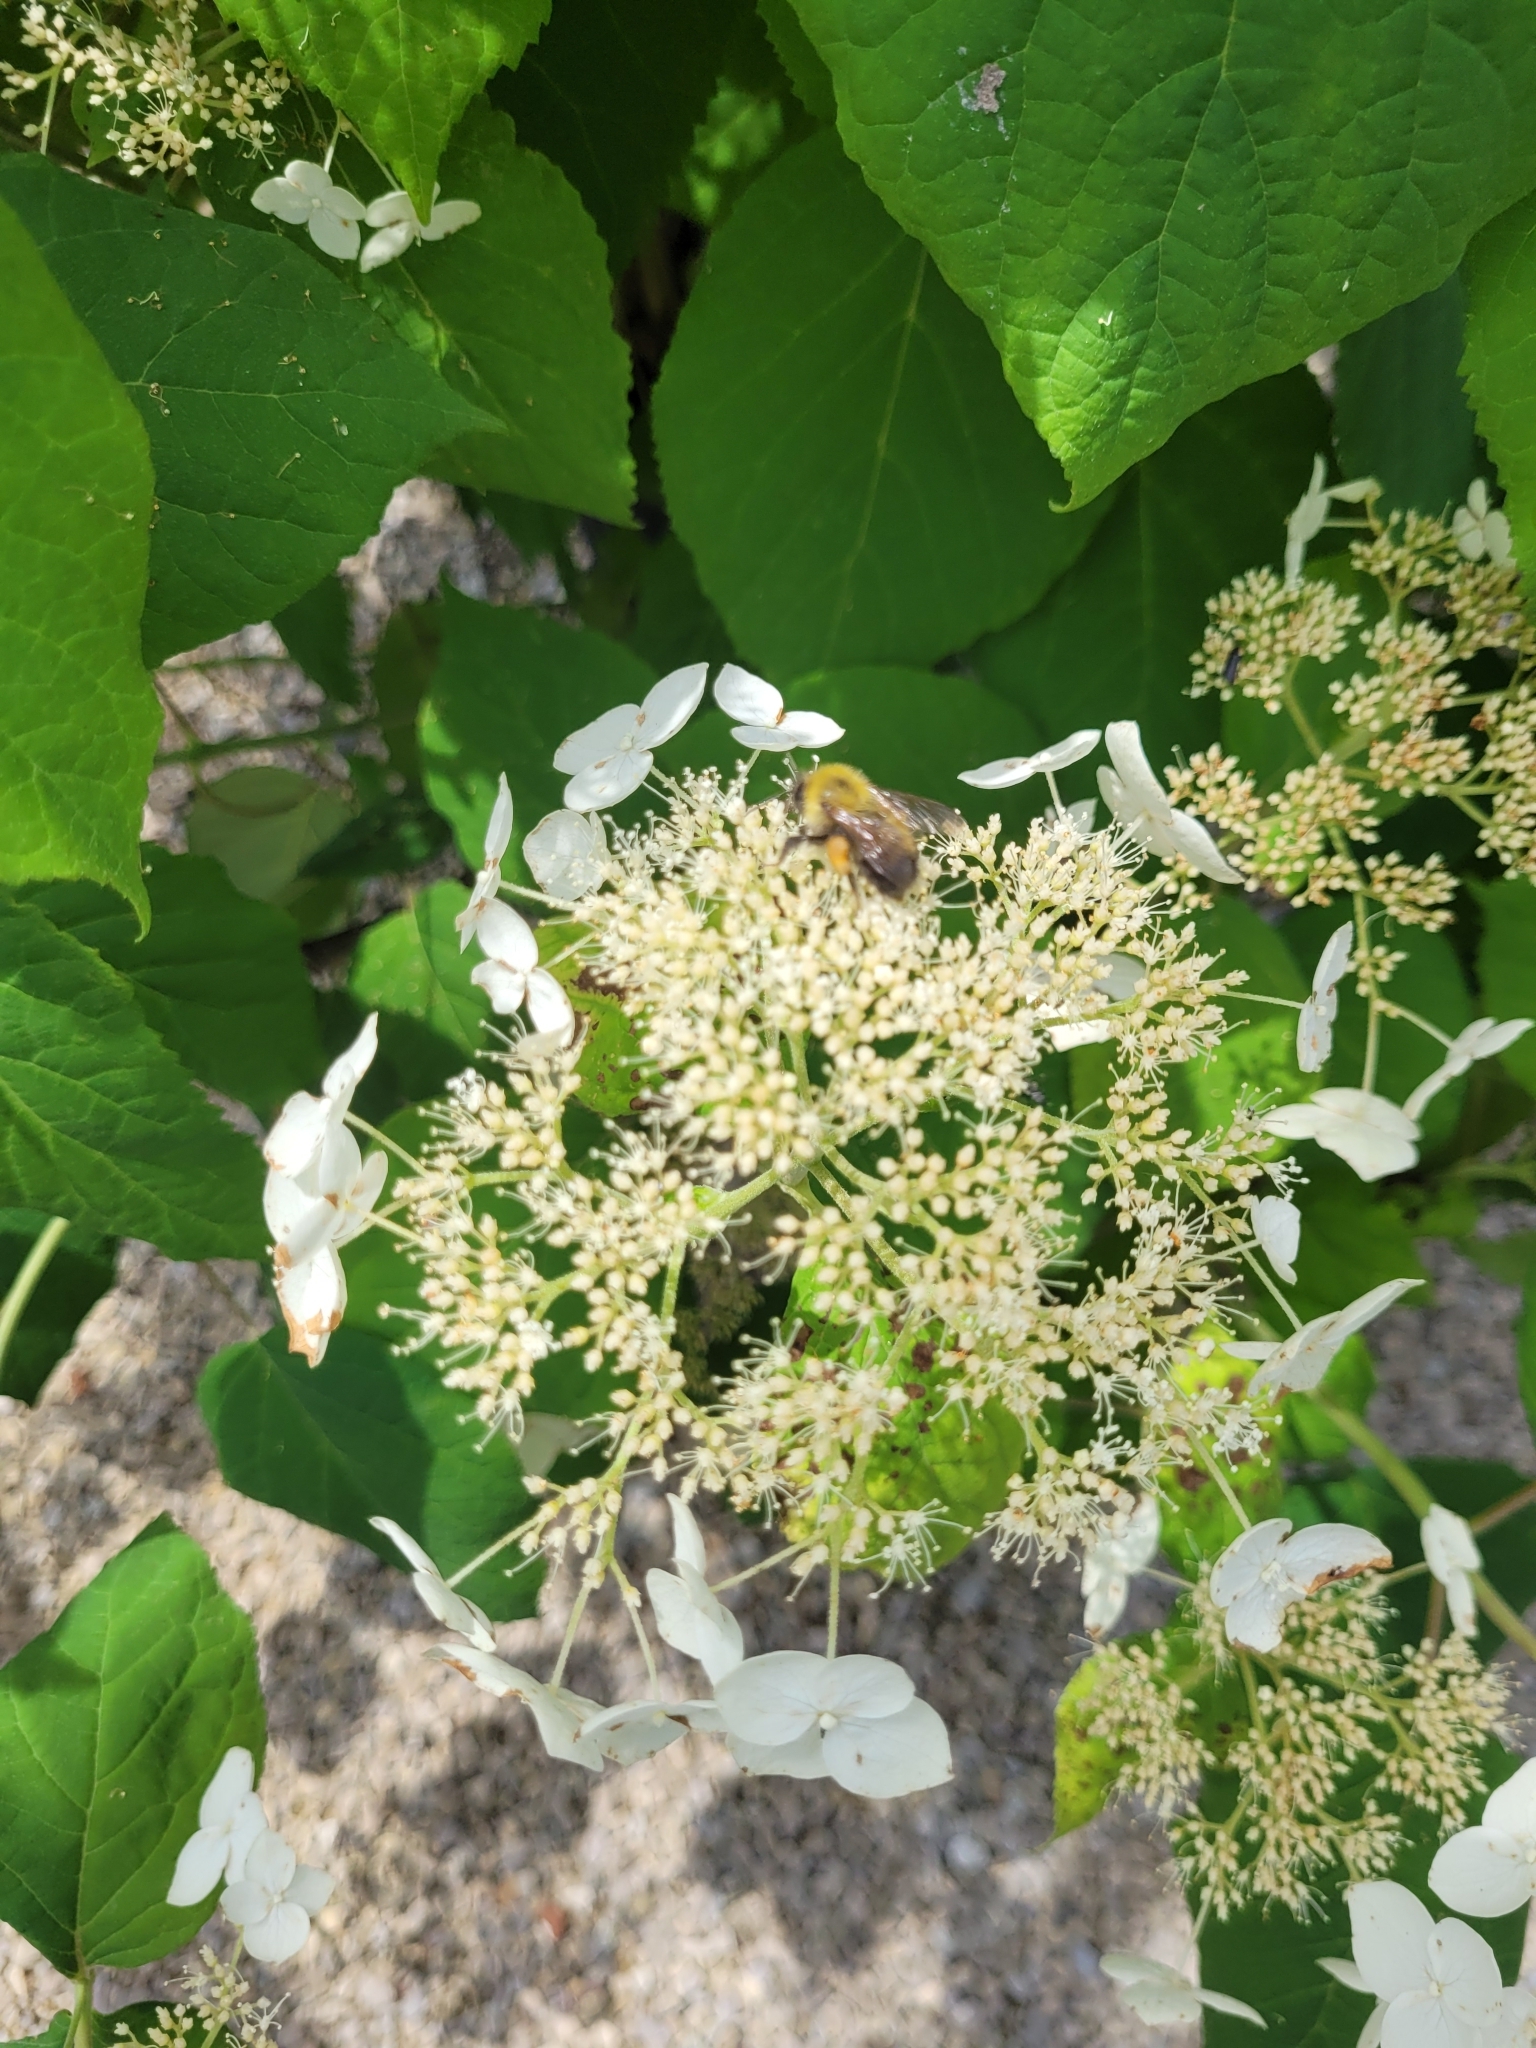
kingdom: Animalia
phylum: Arthropoda
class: Insecta
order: Hymenoptera
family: Apidae
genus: Bombus
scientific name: Bombus perplexus
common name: Confusing bumble bee
